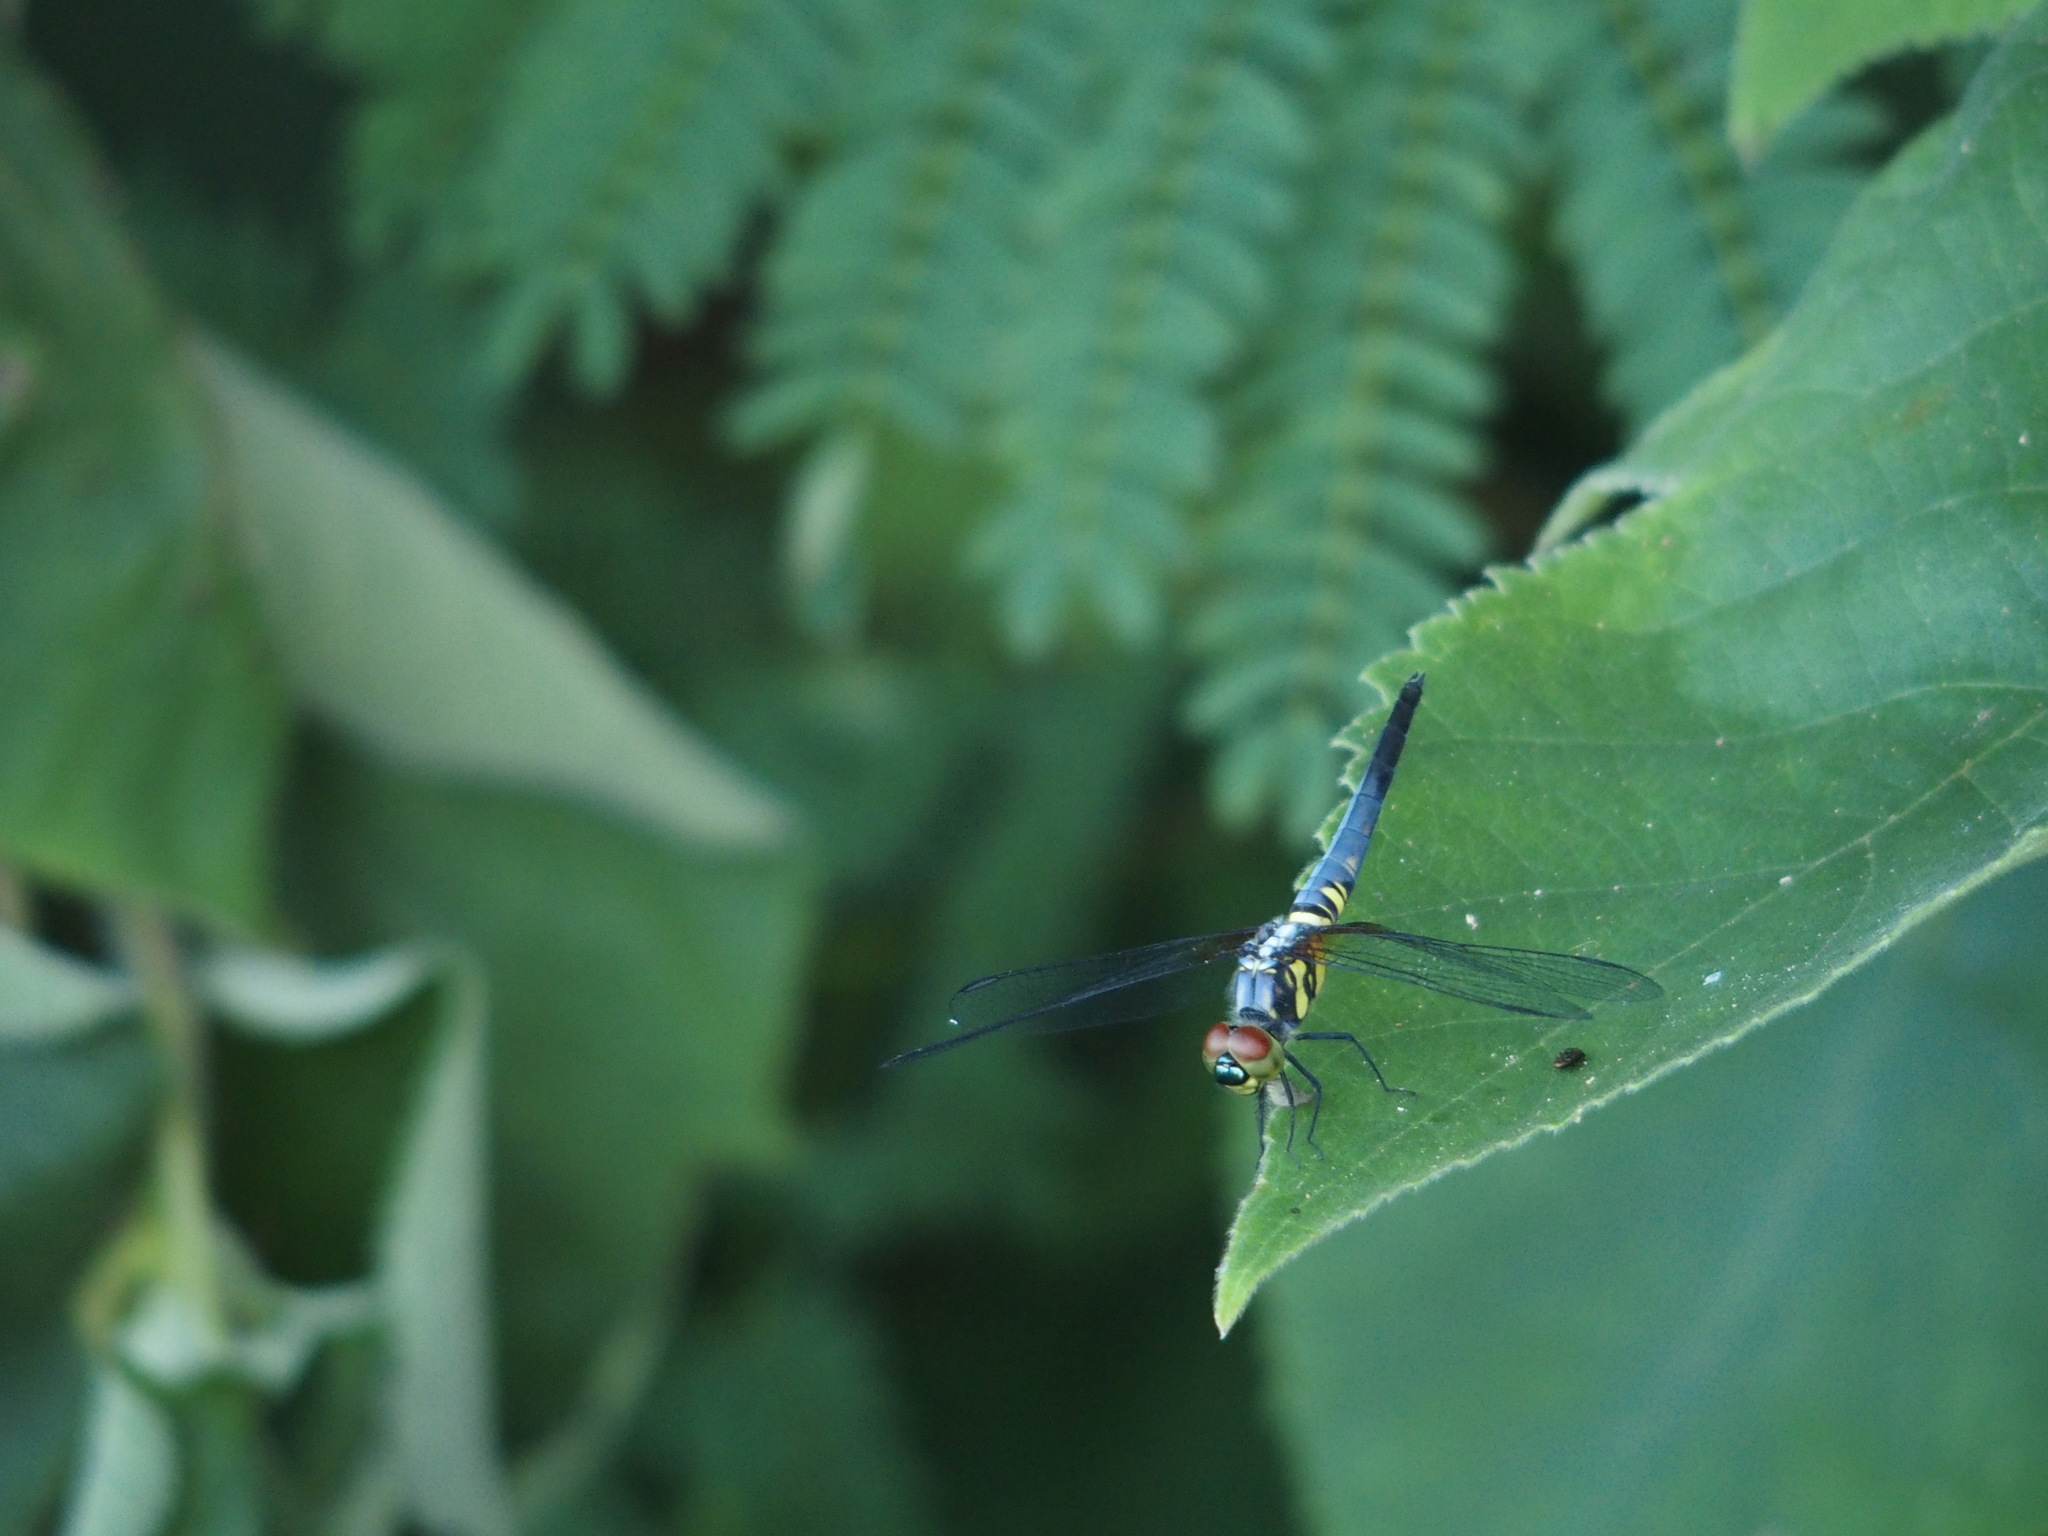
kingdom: Animalia
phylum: Arthropoda
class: Insecta
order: Odonata
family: Libellulidae
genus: Brachydiplax
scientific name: Brachydiplax chalybea
